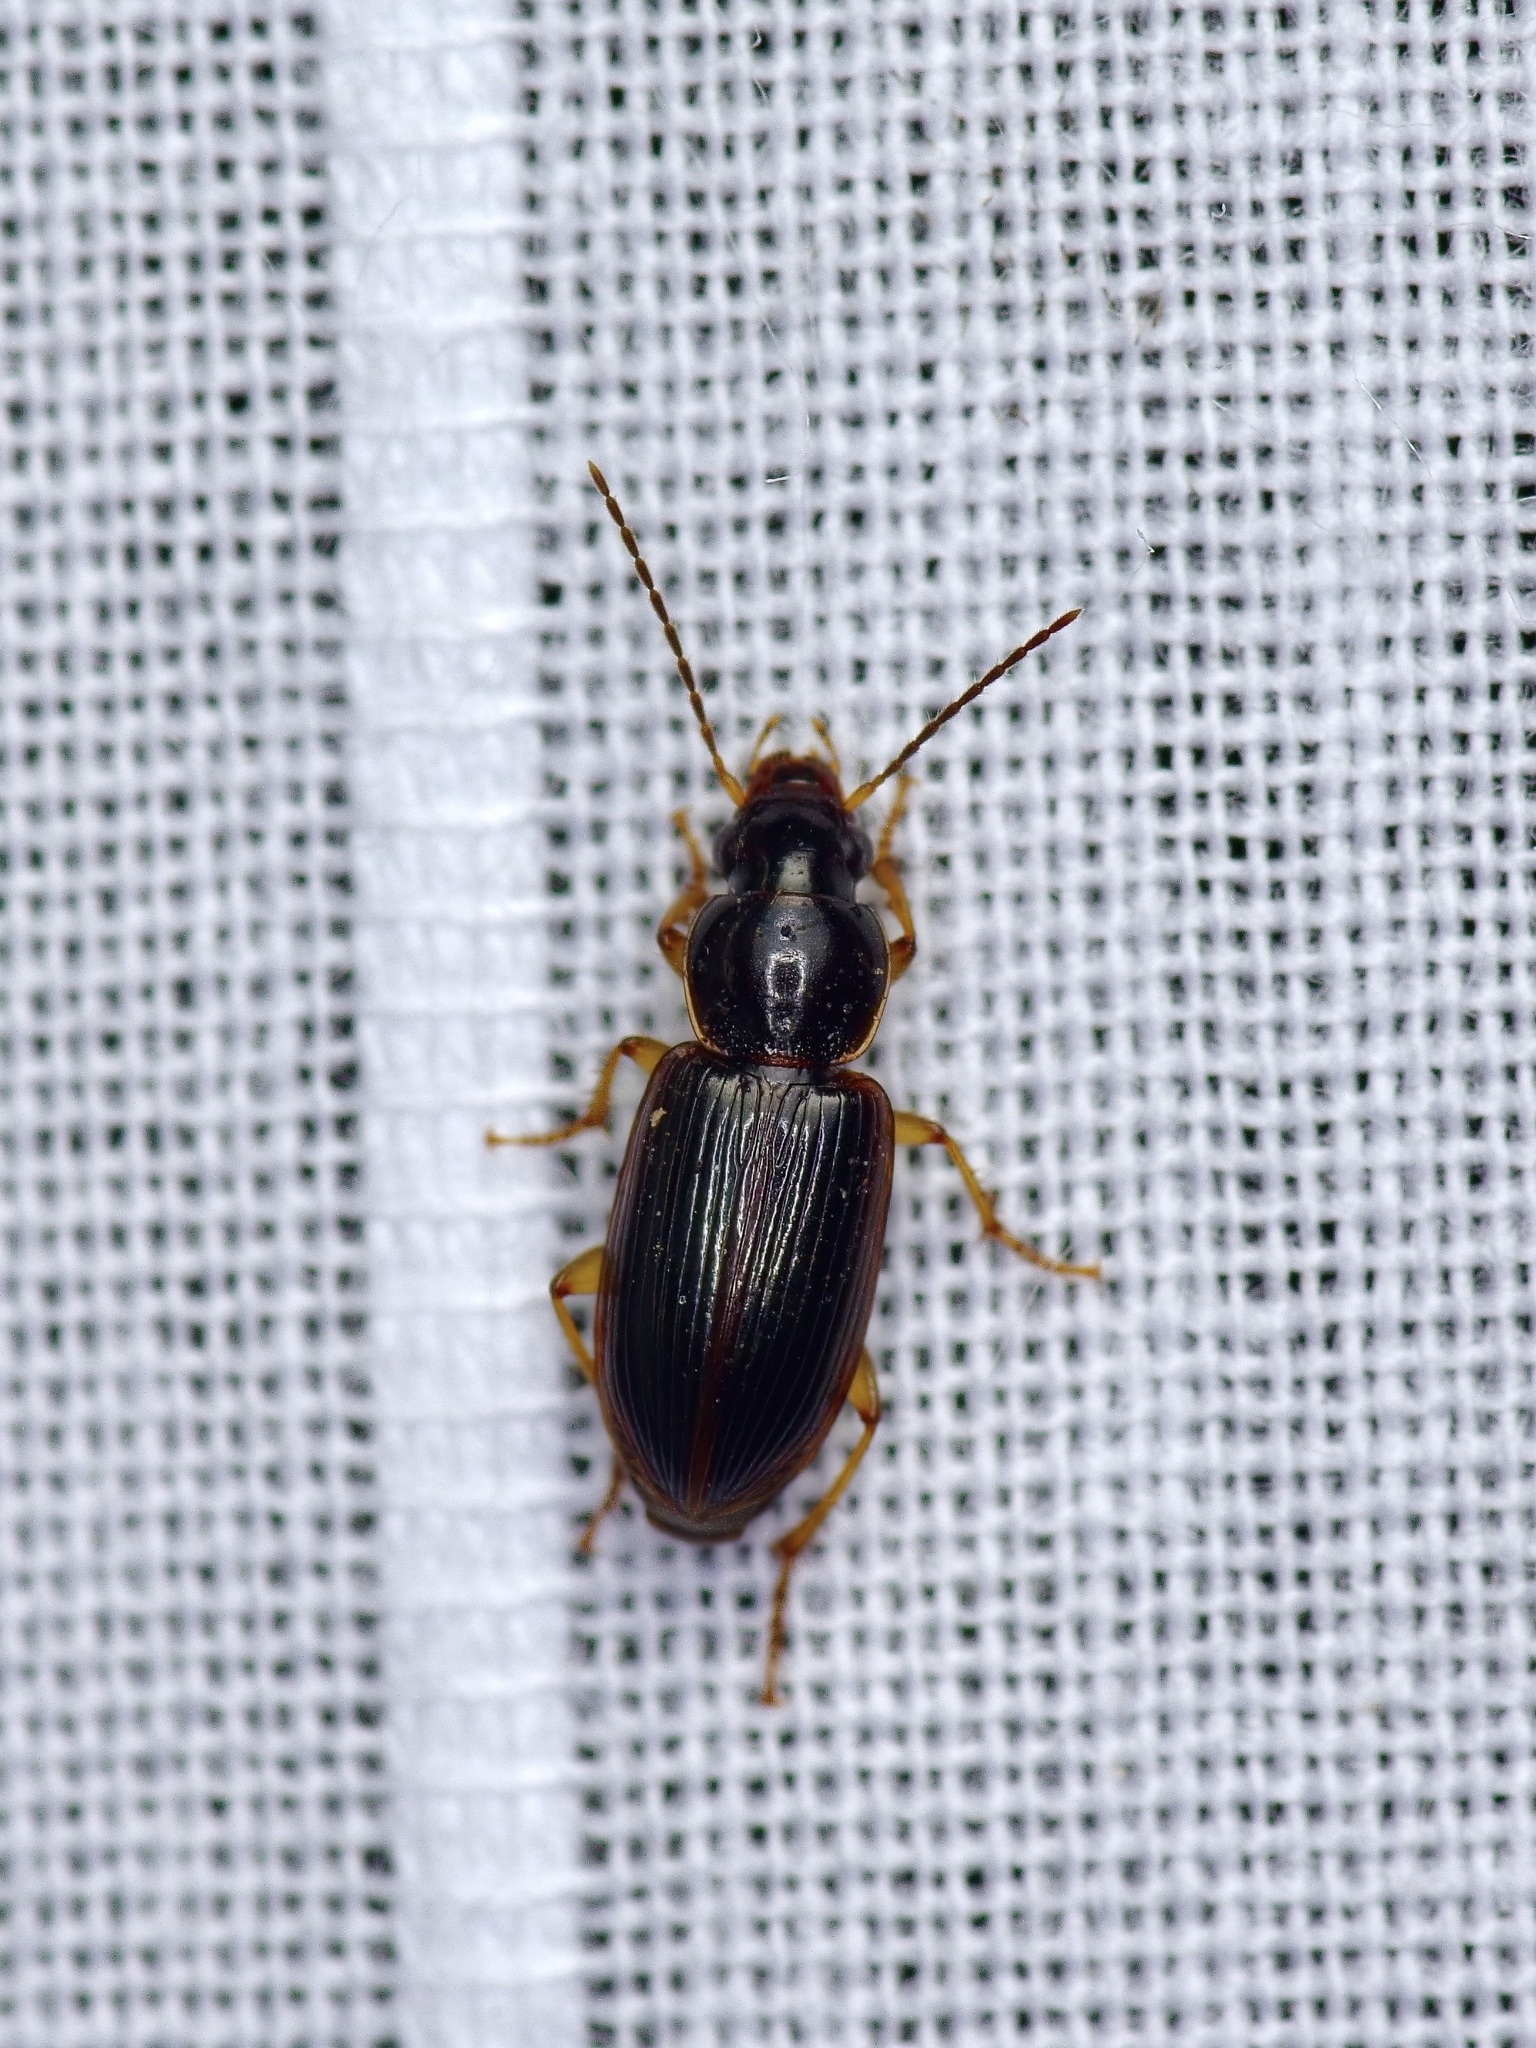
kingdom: Animalia
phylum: Arthropoda
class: Insecta
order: Coleoptera
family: Carabidae
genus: Stenolophus
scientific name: Stenolophus ochropezus
